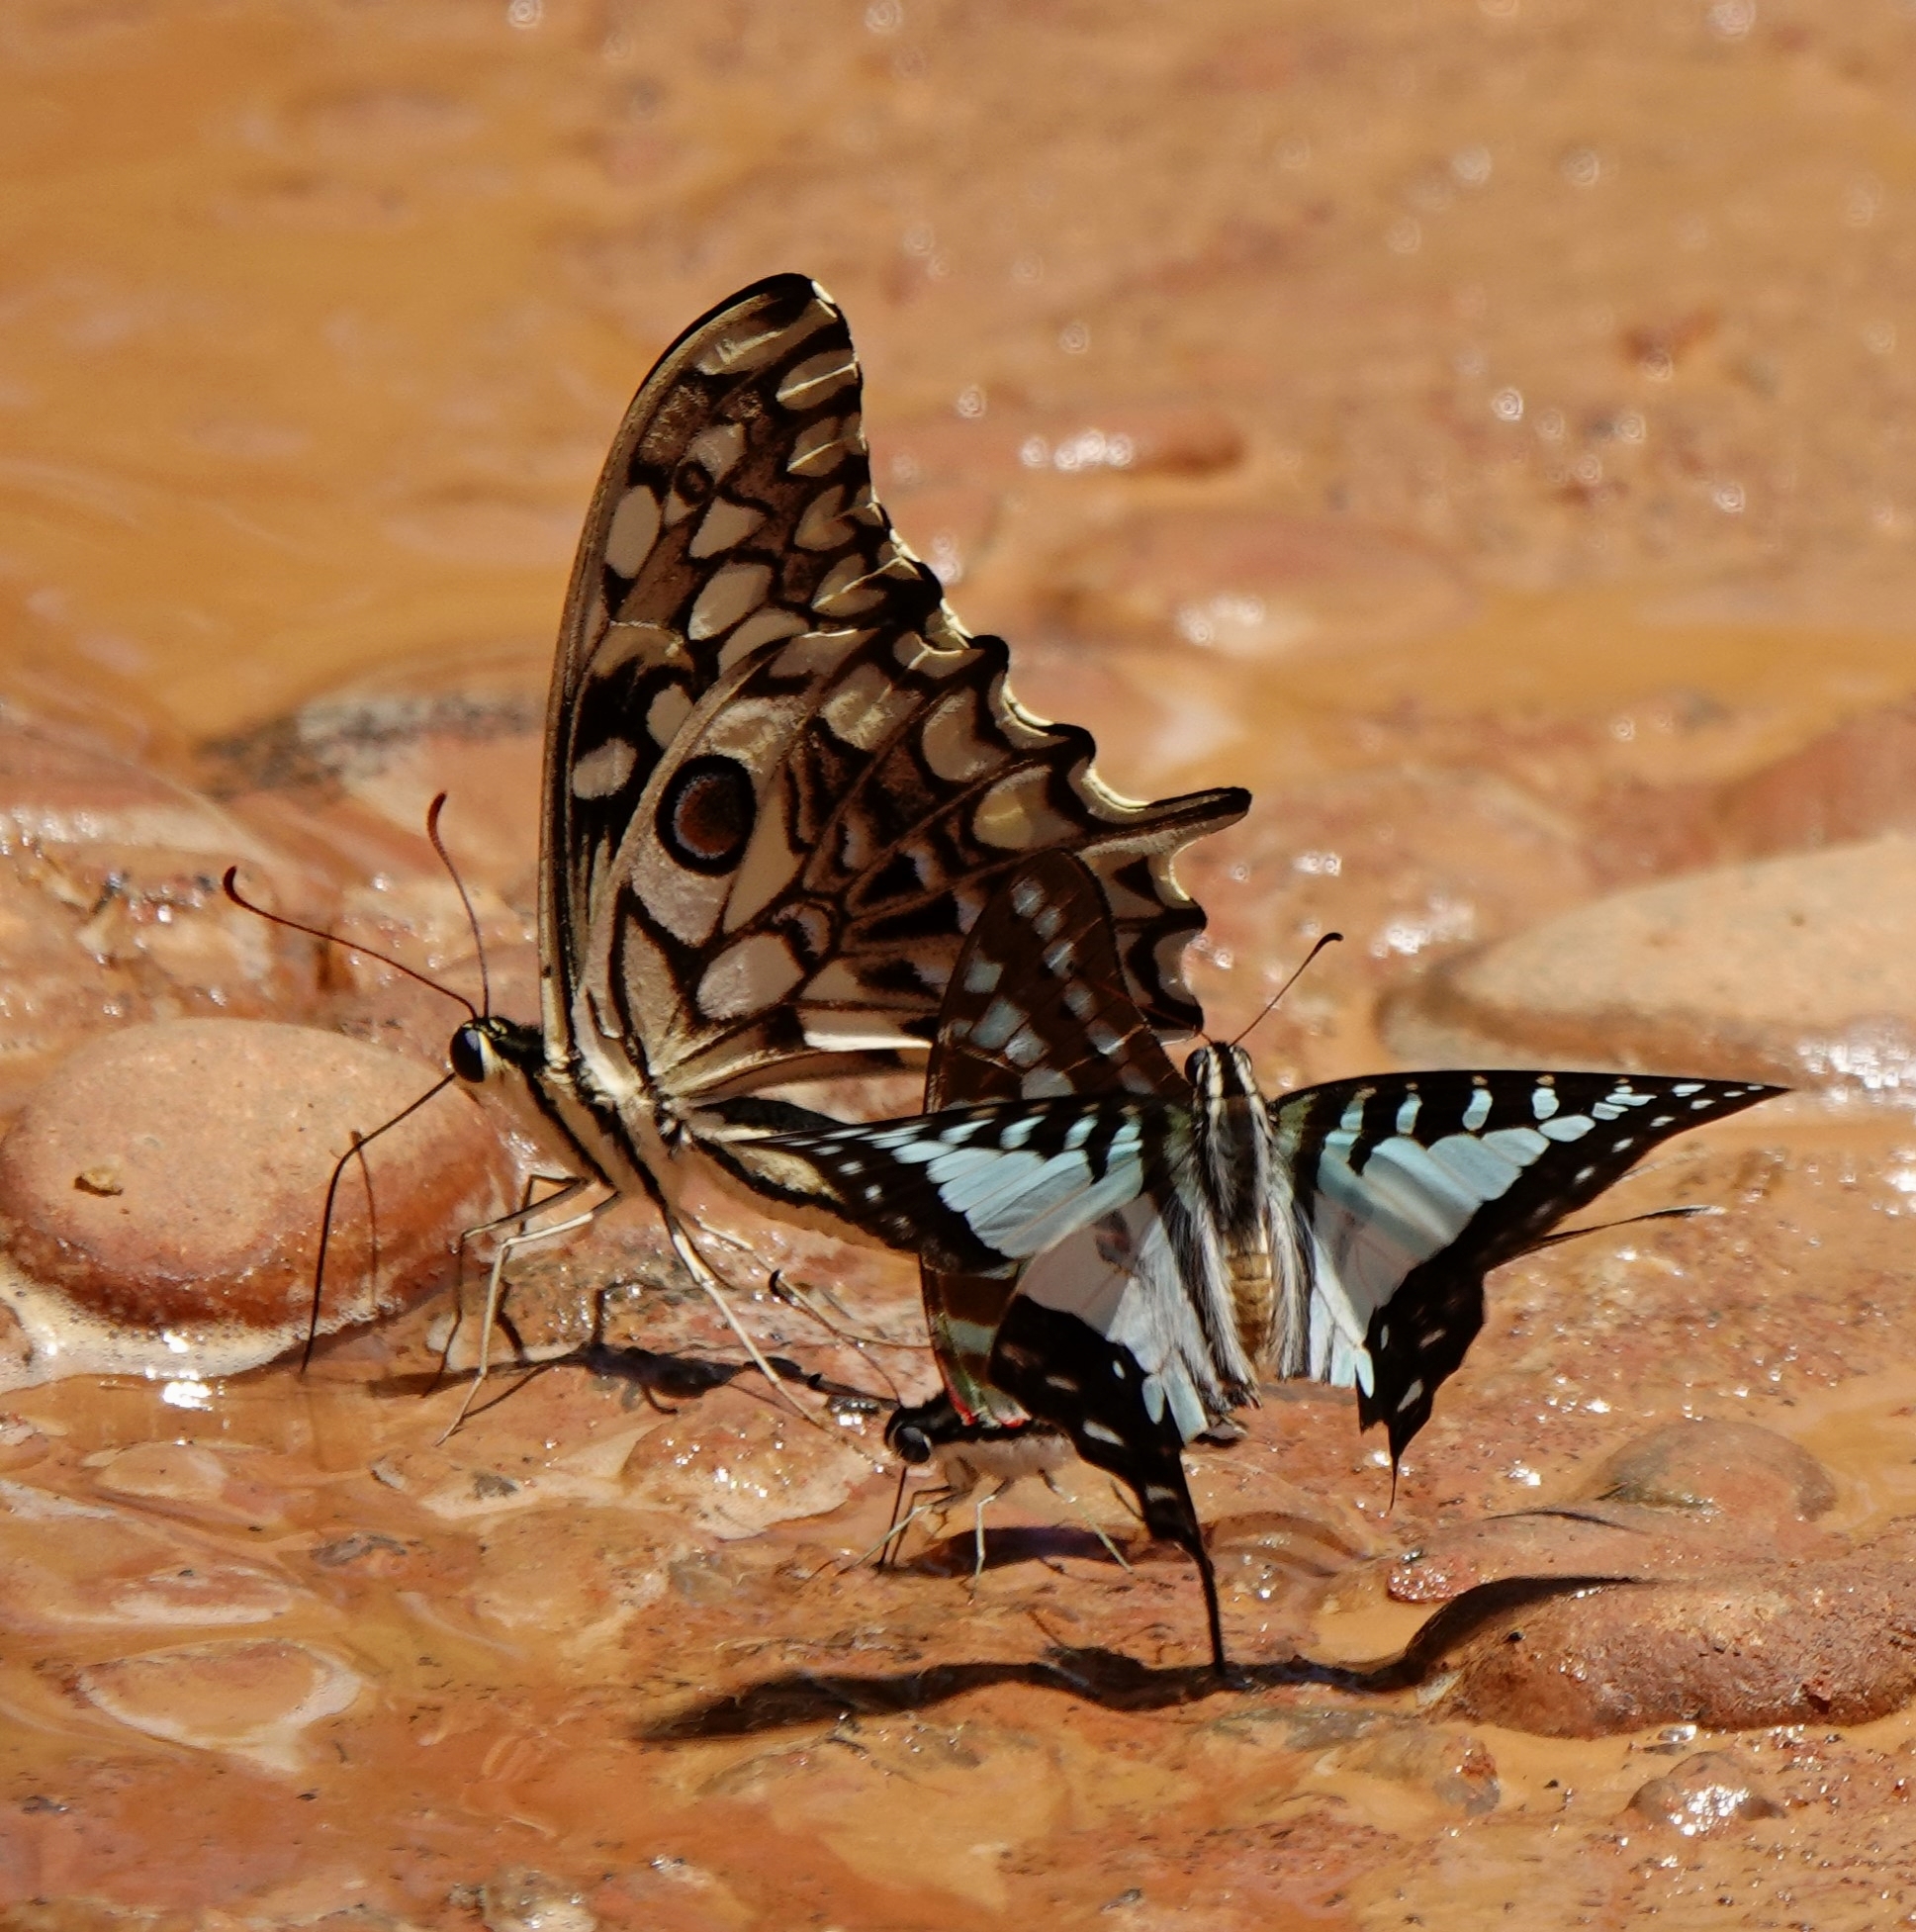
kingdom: Animalia
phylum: Arthropoda
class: Insecta
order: Lepidoptera
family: Papilionidae
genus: Graphium
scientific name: Graphium evombar
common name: Madagascan striped swordtail
